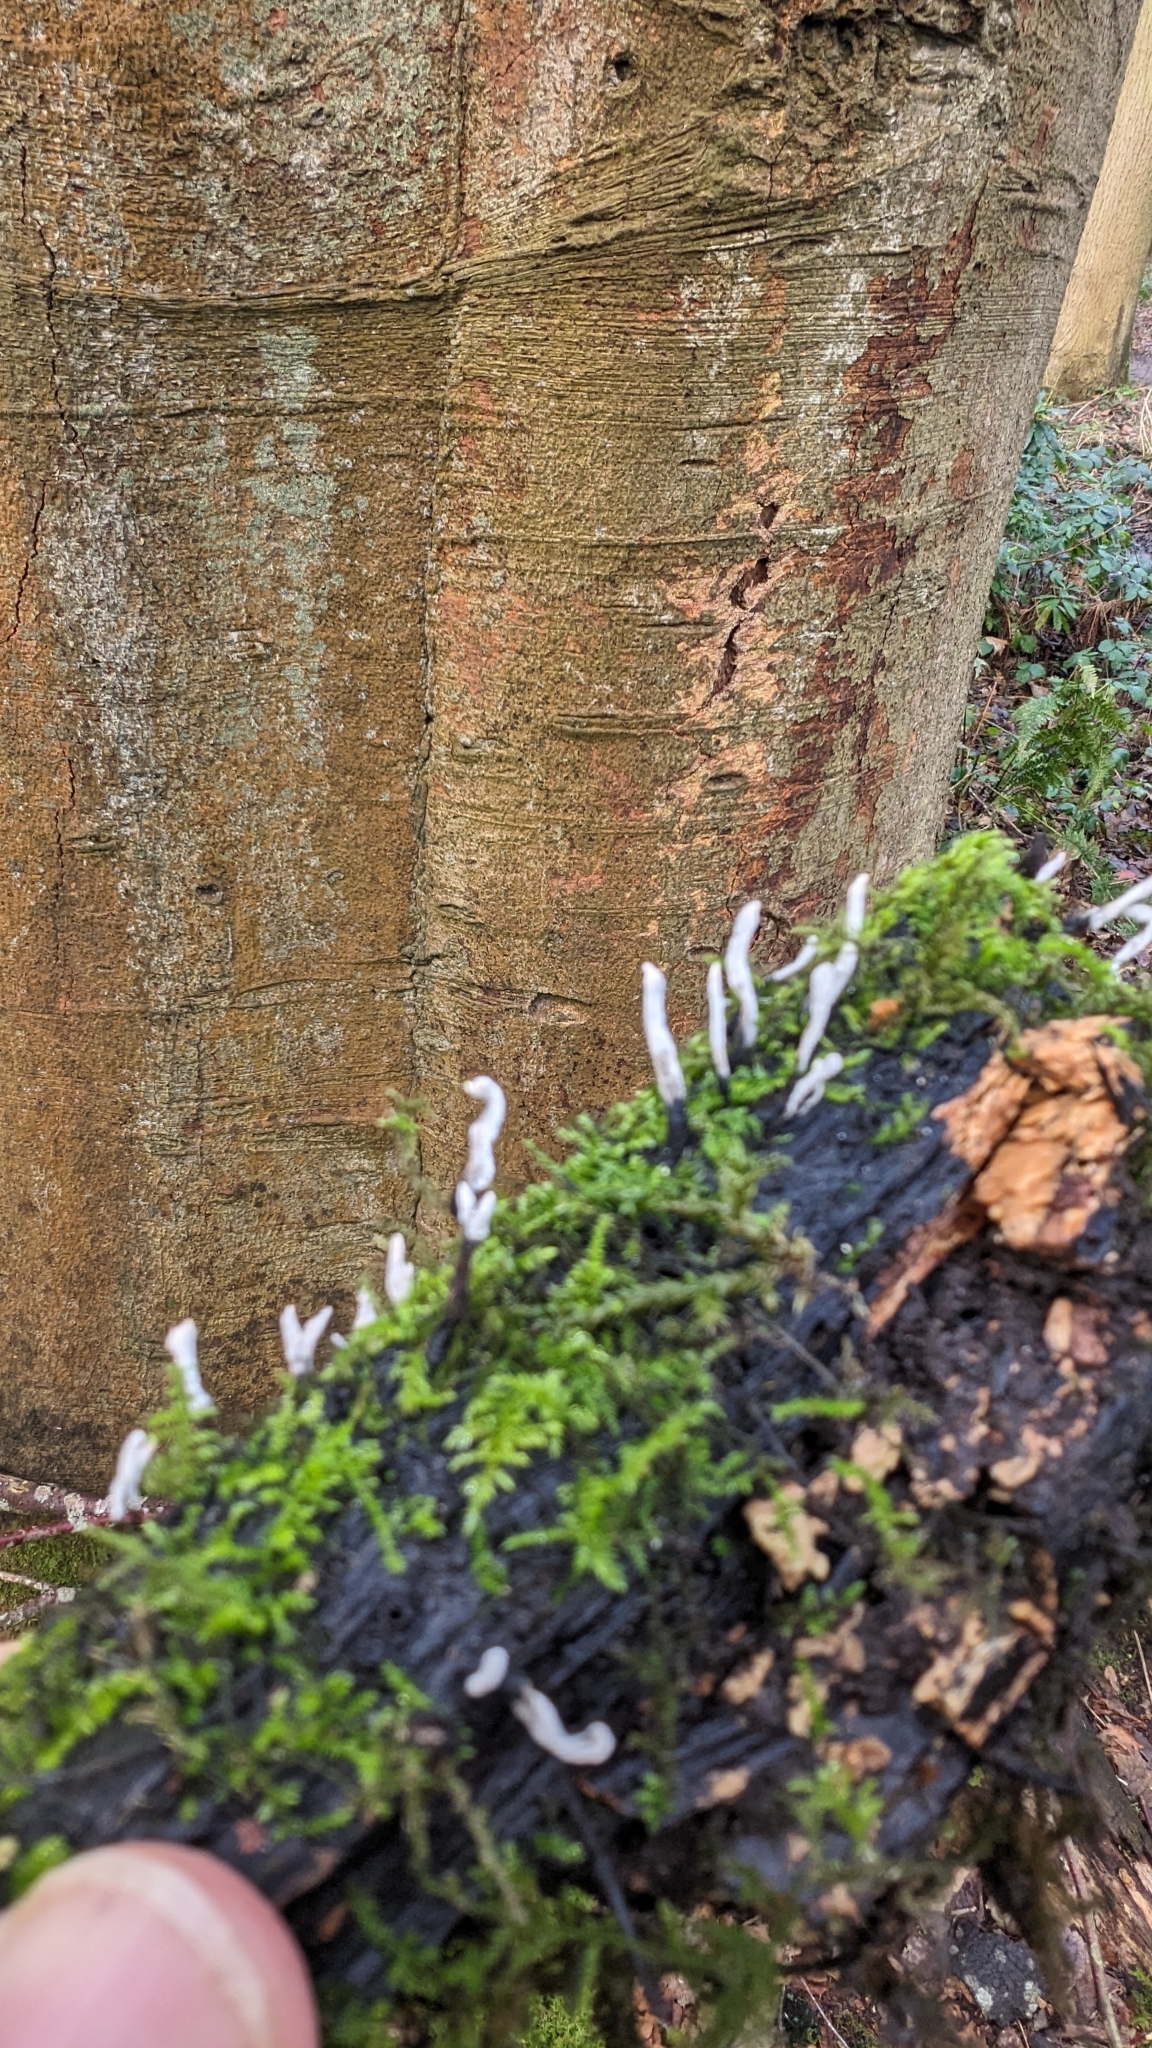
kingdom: Fungi
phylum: Ascomycota
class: Sordariomycetes
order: Xylariales
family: Xylariaceae
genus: Xylaria
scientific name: Xylaria hypoxylon
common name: Candle-snuff fungus
